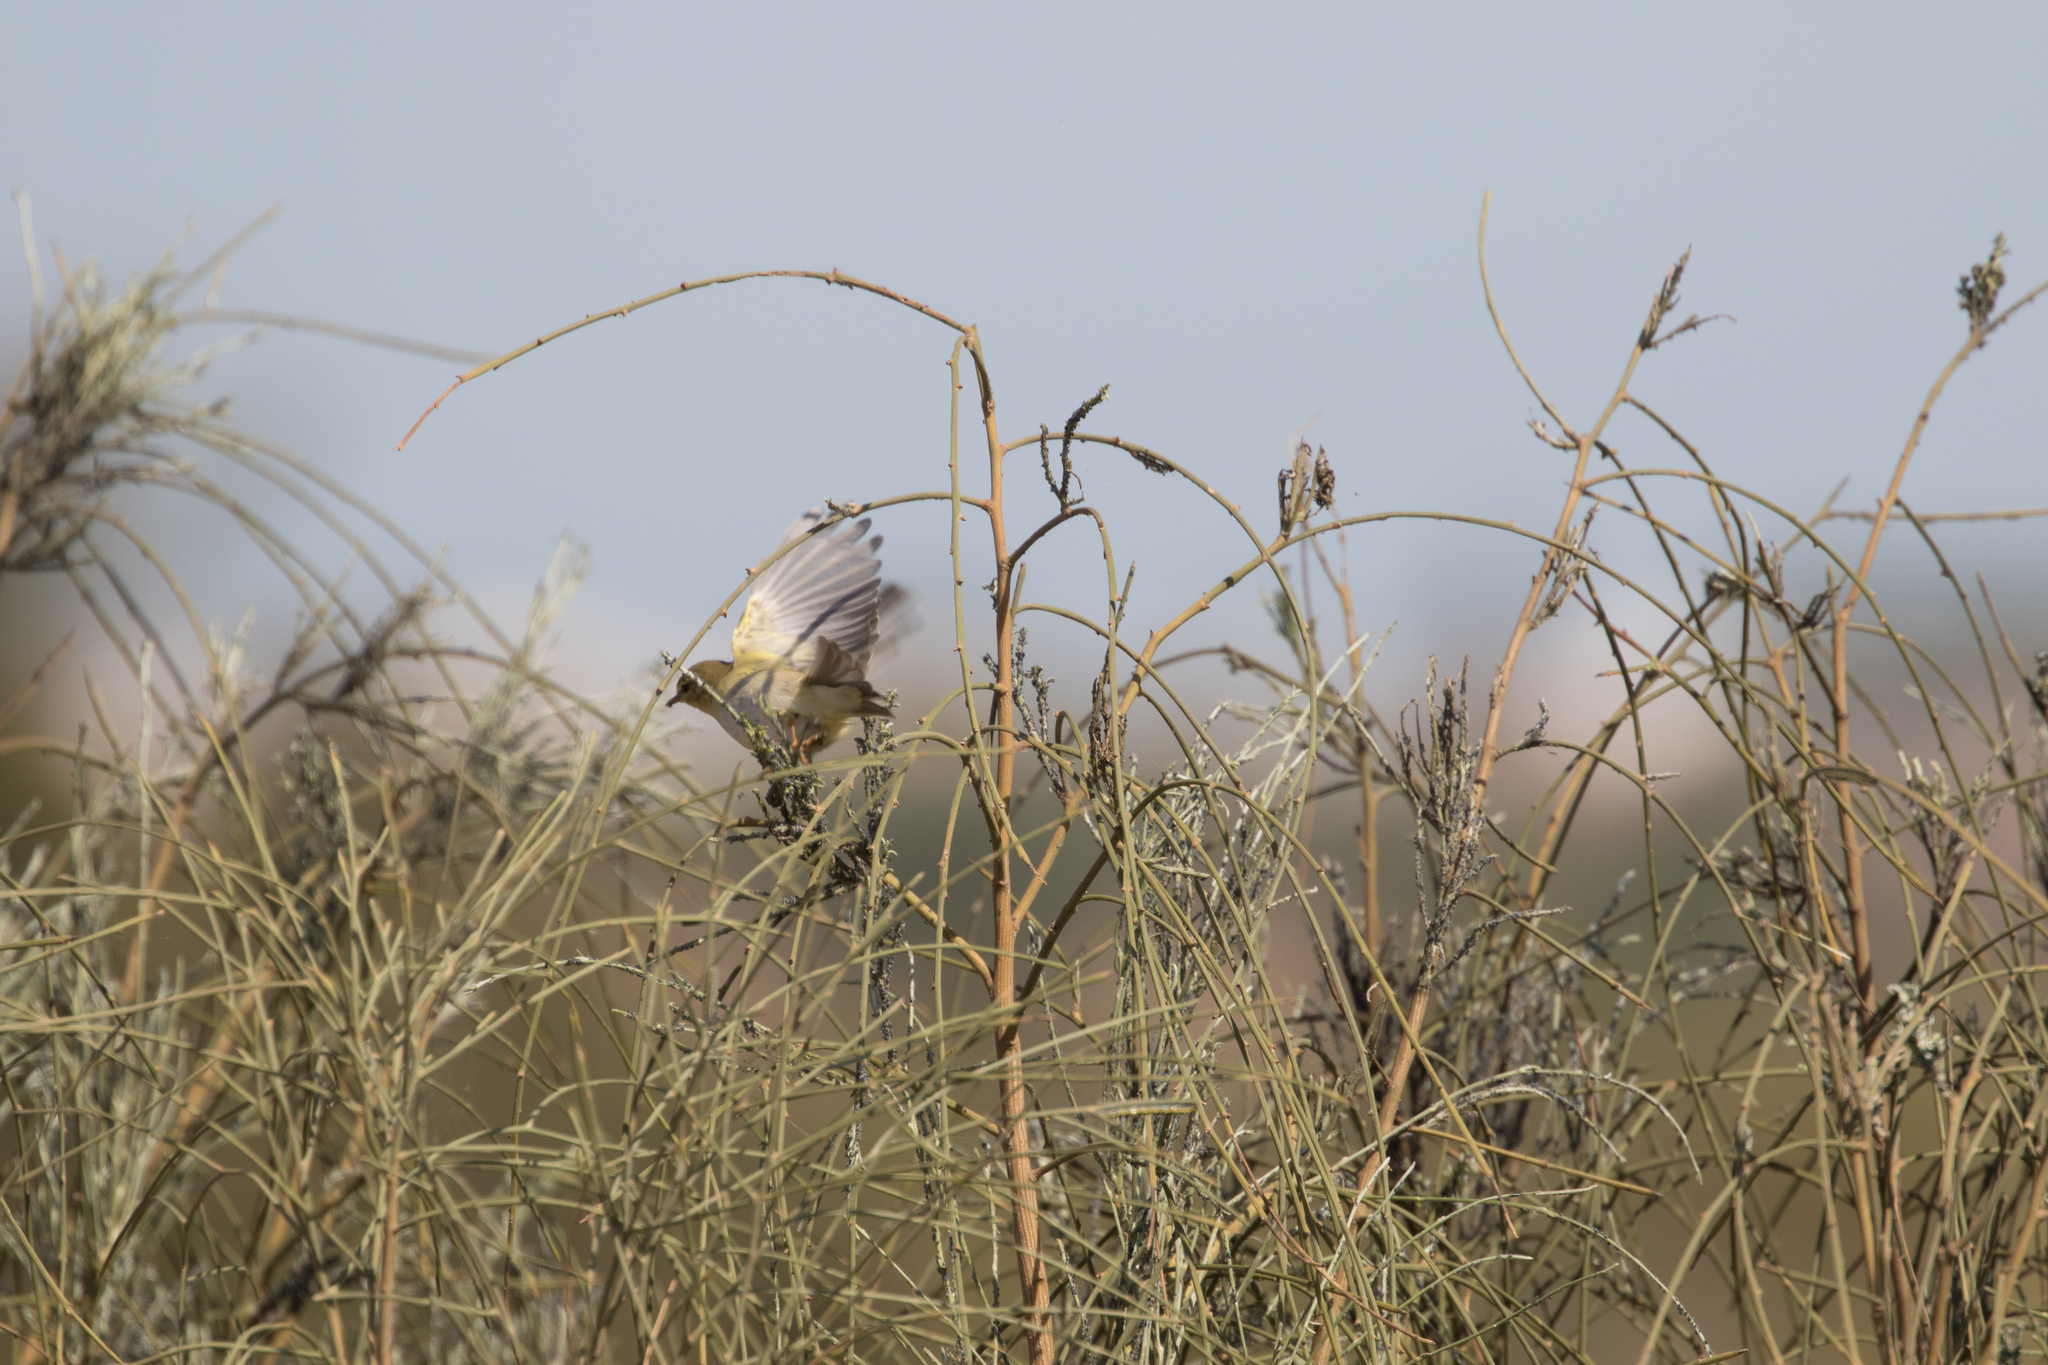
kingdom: Animalia
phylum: Chordata
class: Aves
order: Passeriformes
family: Phylloscopidae
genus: Phylloscopus
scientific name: Phylloscopus trochilus
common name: Willow warbler
